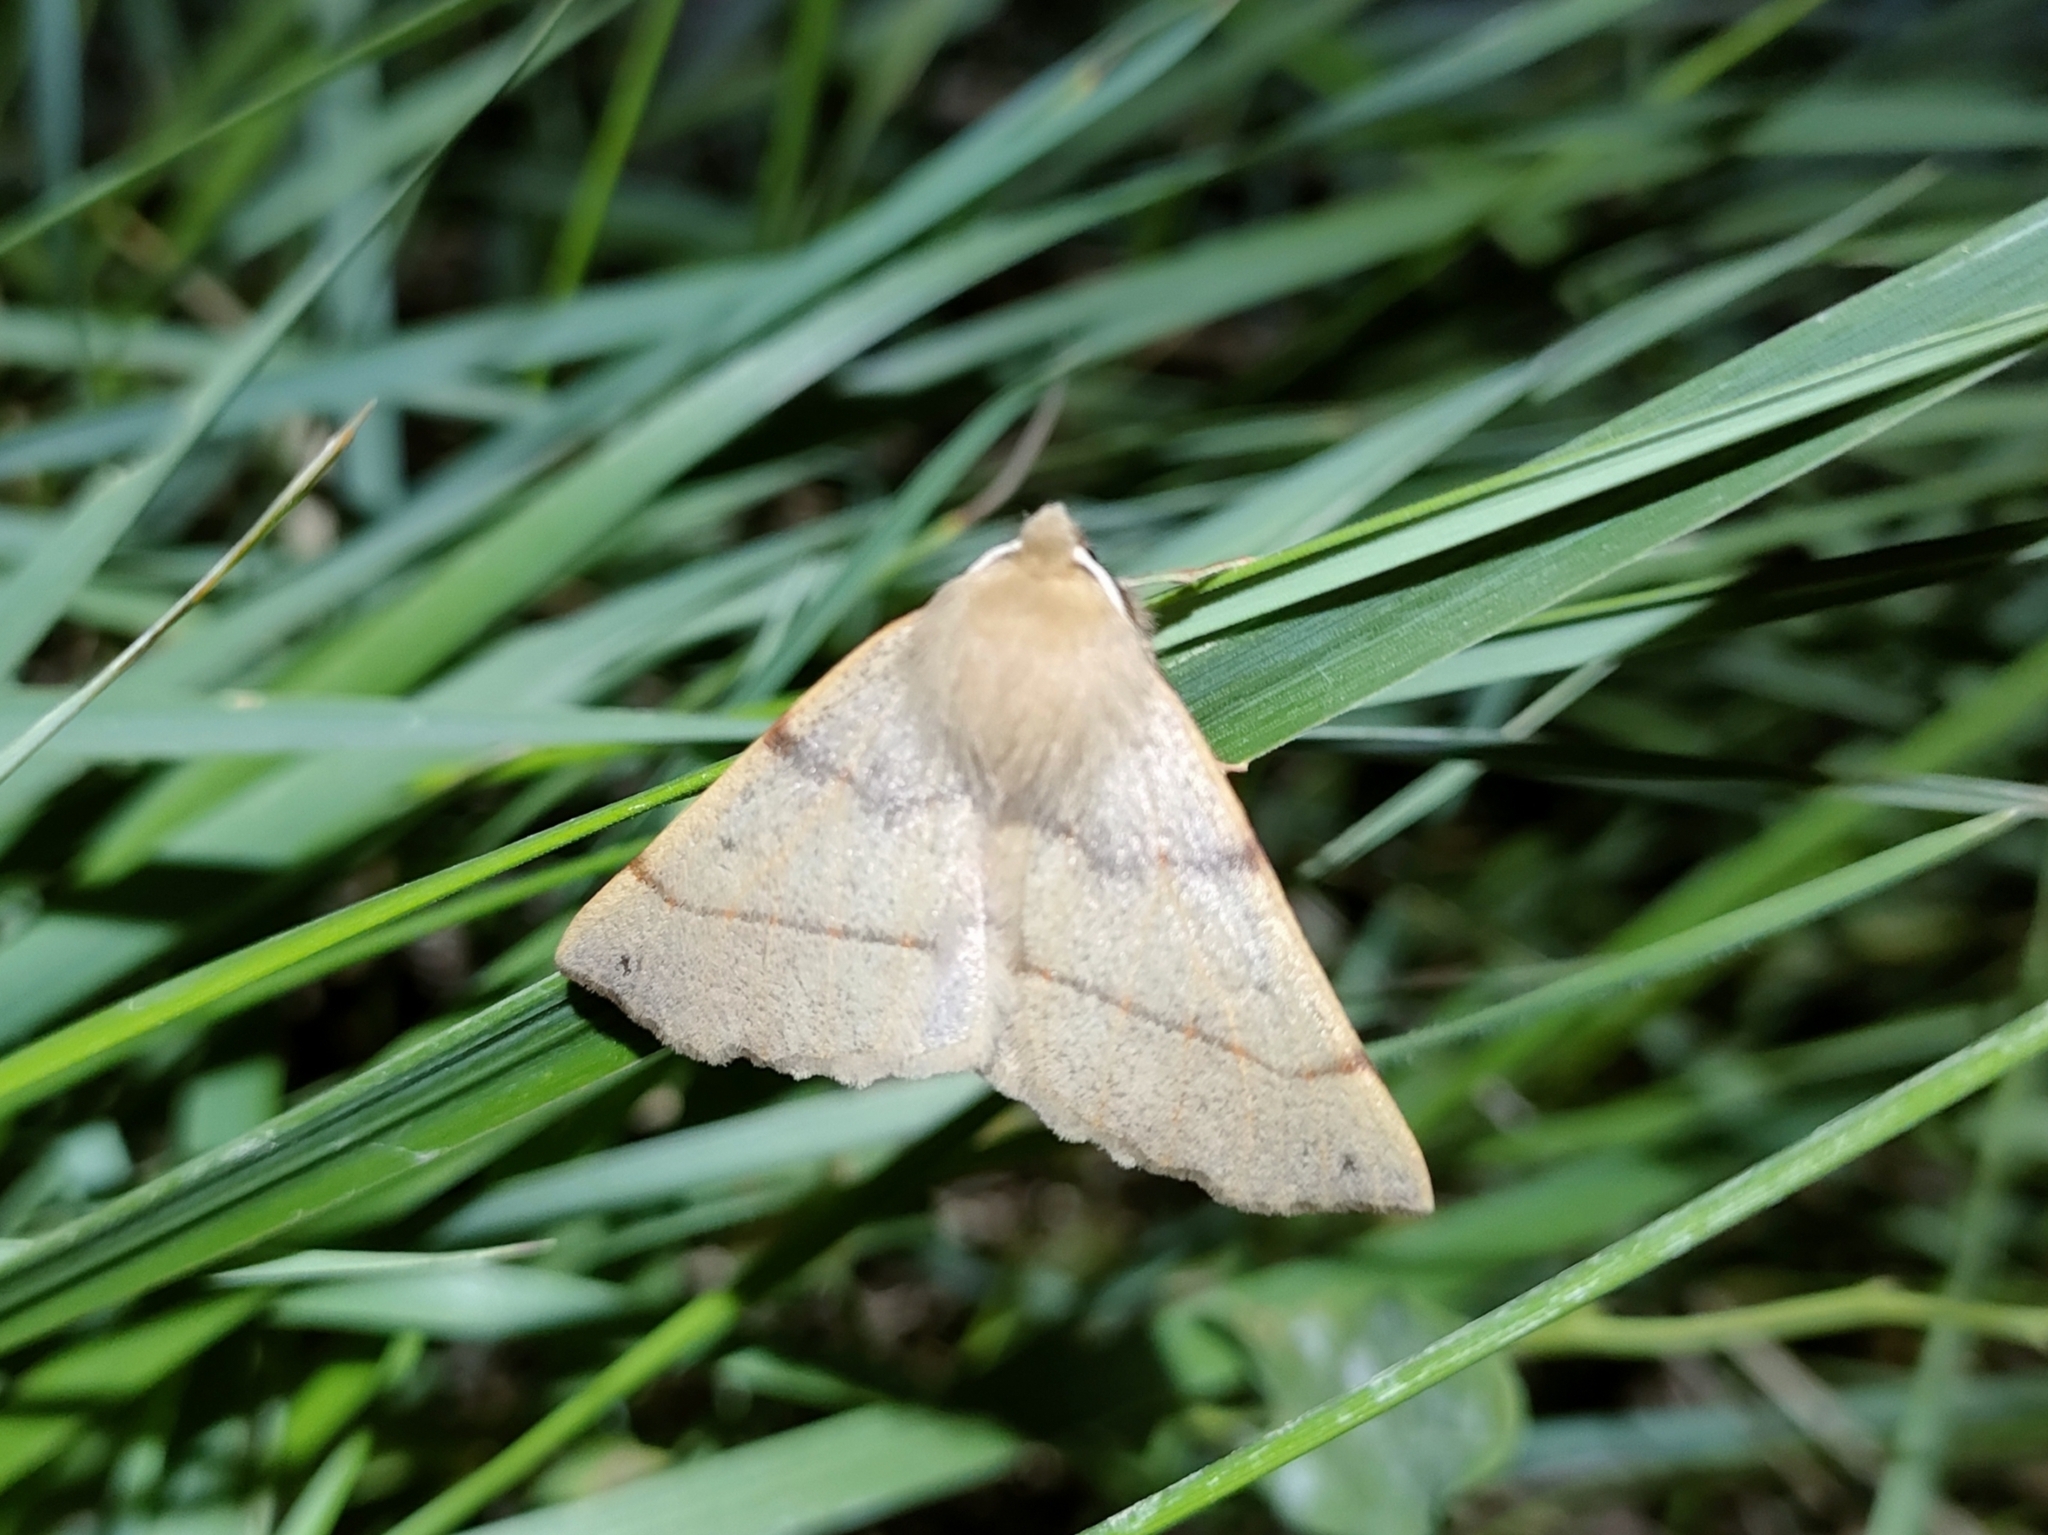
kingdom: Animalia
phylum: Arthropoda
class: Insecta
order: Lepidoptera
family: Geometridae
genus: Colotois
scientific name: Colotois pennaria
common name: Feathered thorn
